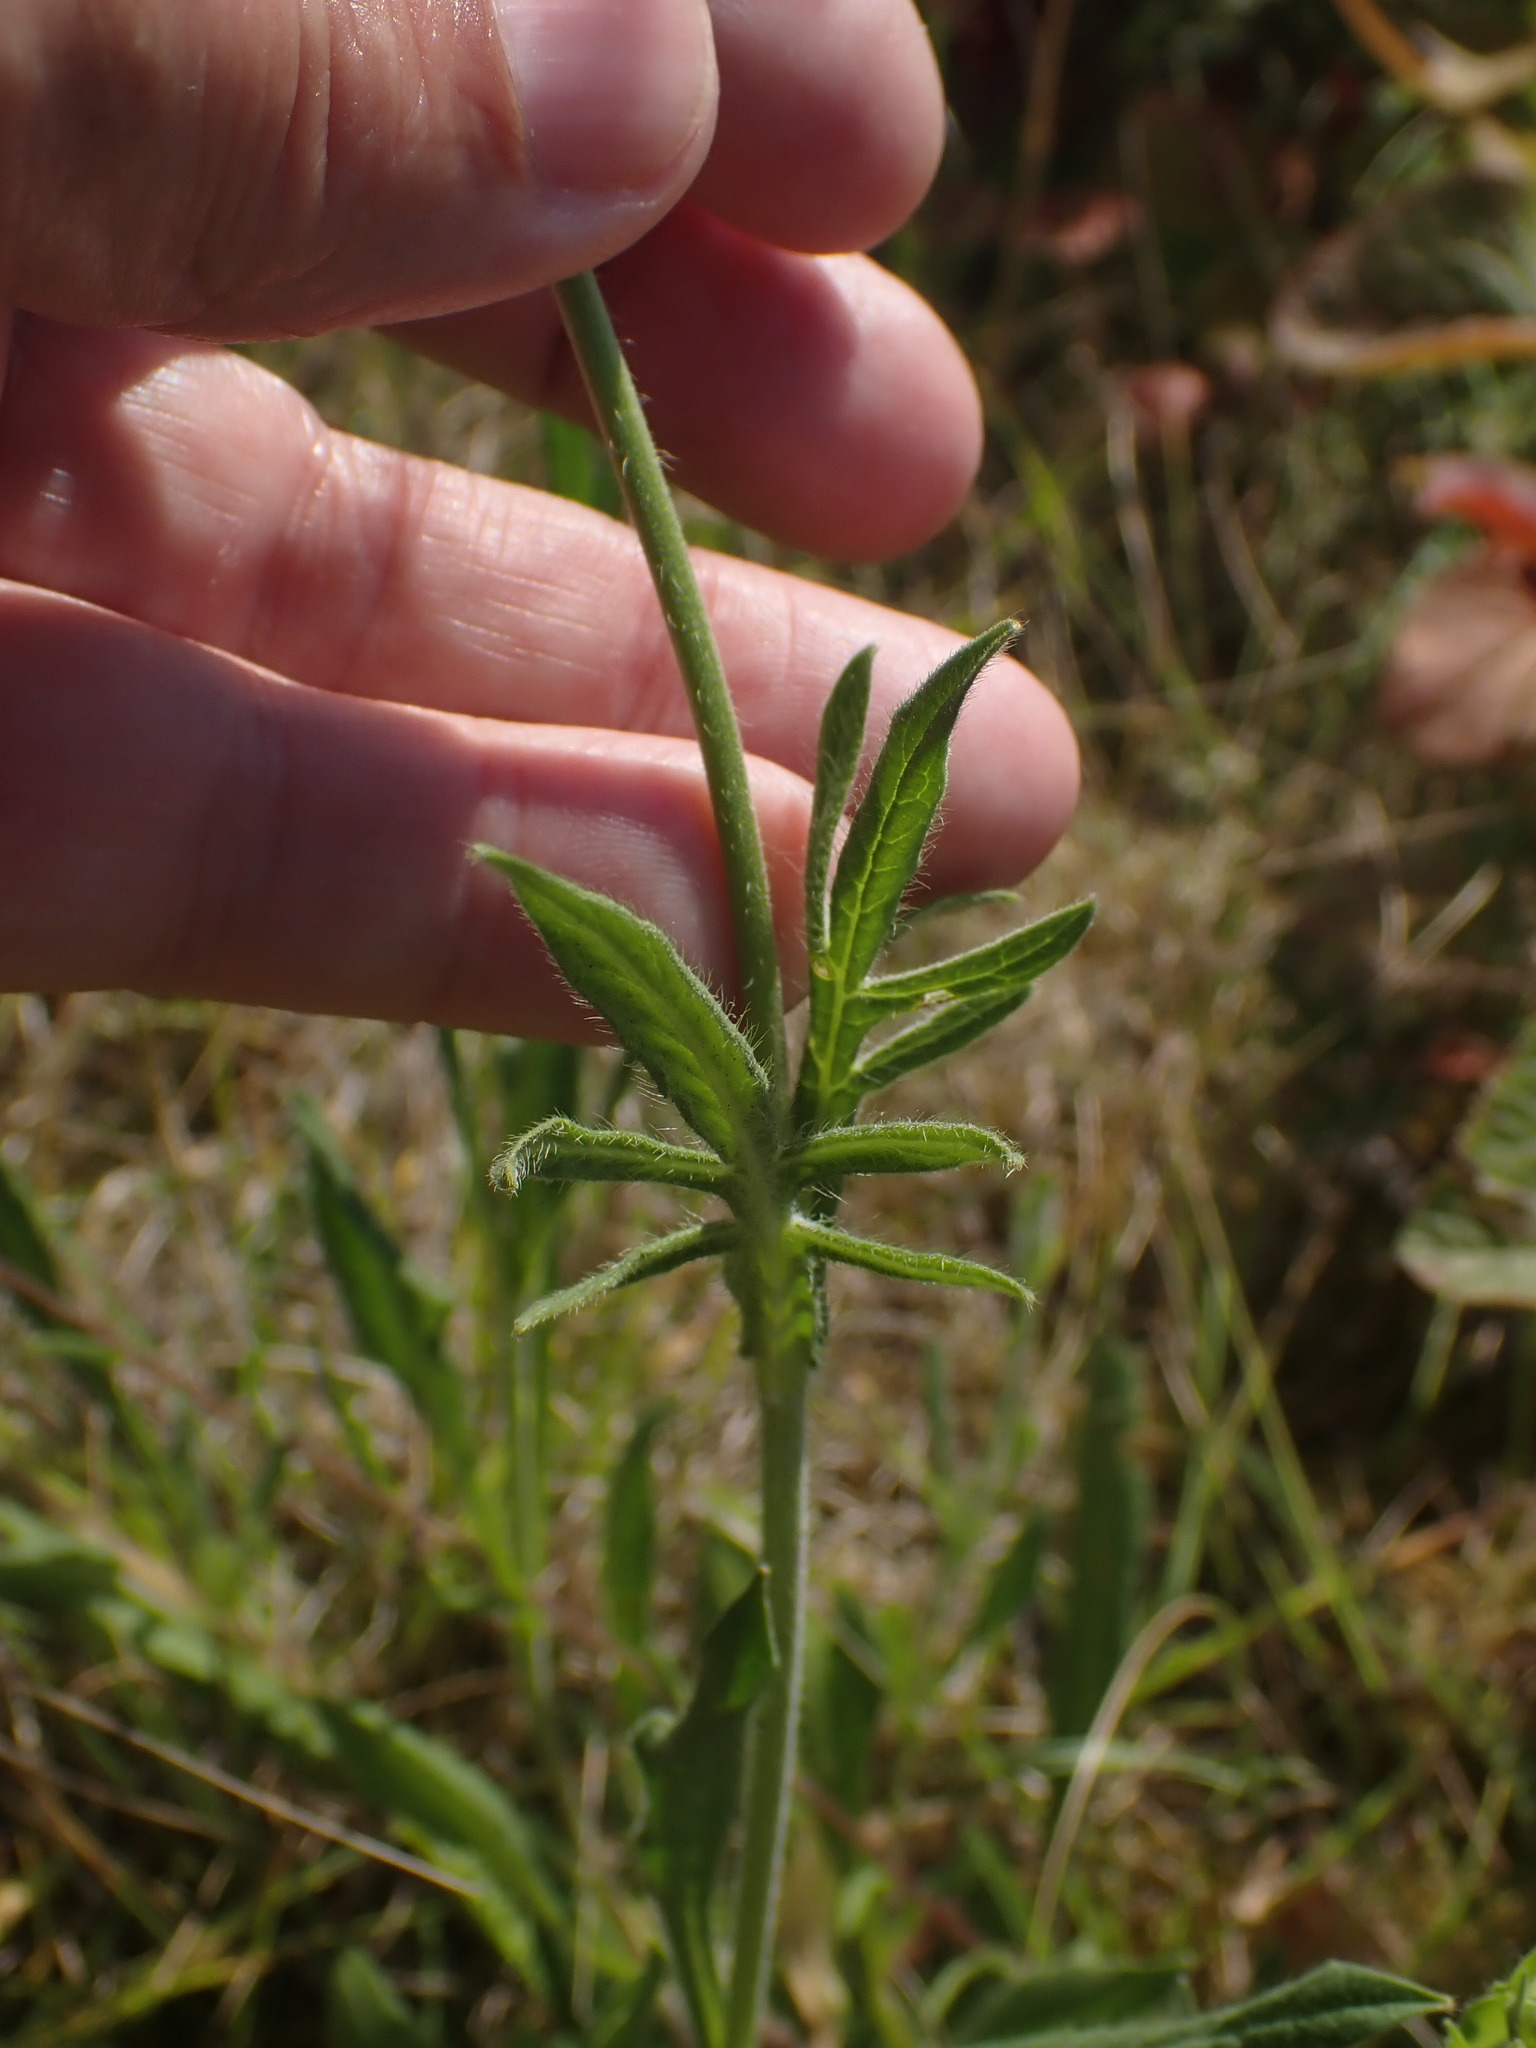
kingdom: Plantae
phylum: Tracheophyta
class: Magnoliopsida
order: Dipsacales
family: Caprifoliaceae
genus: Knautia
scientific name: Knautia arvensis
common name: Field scabiosa
